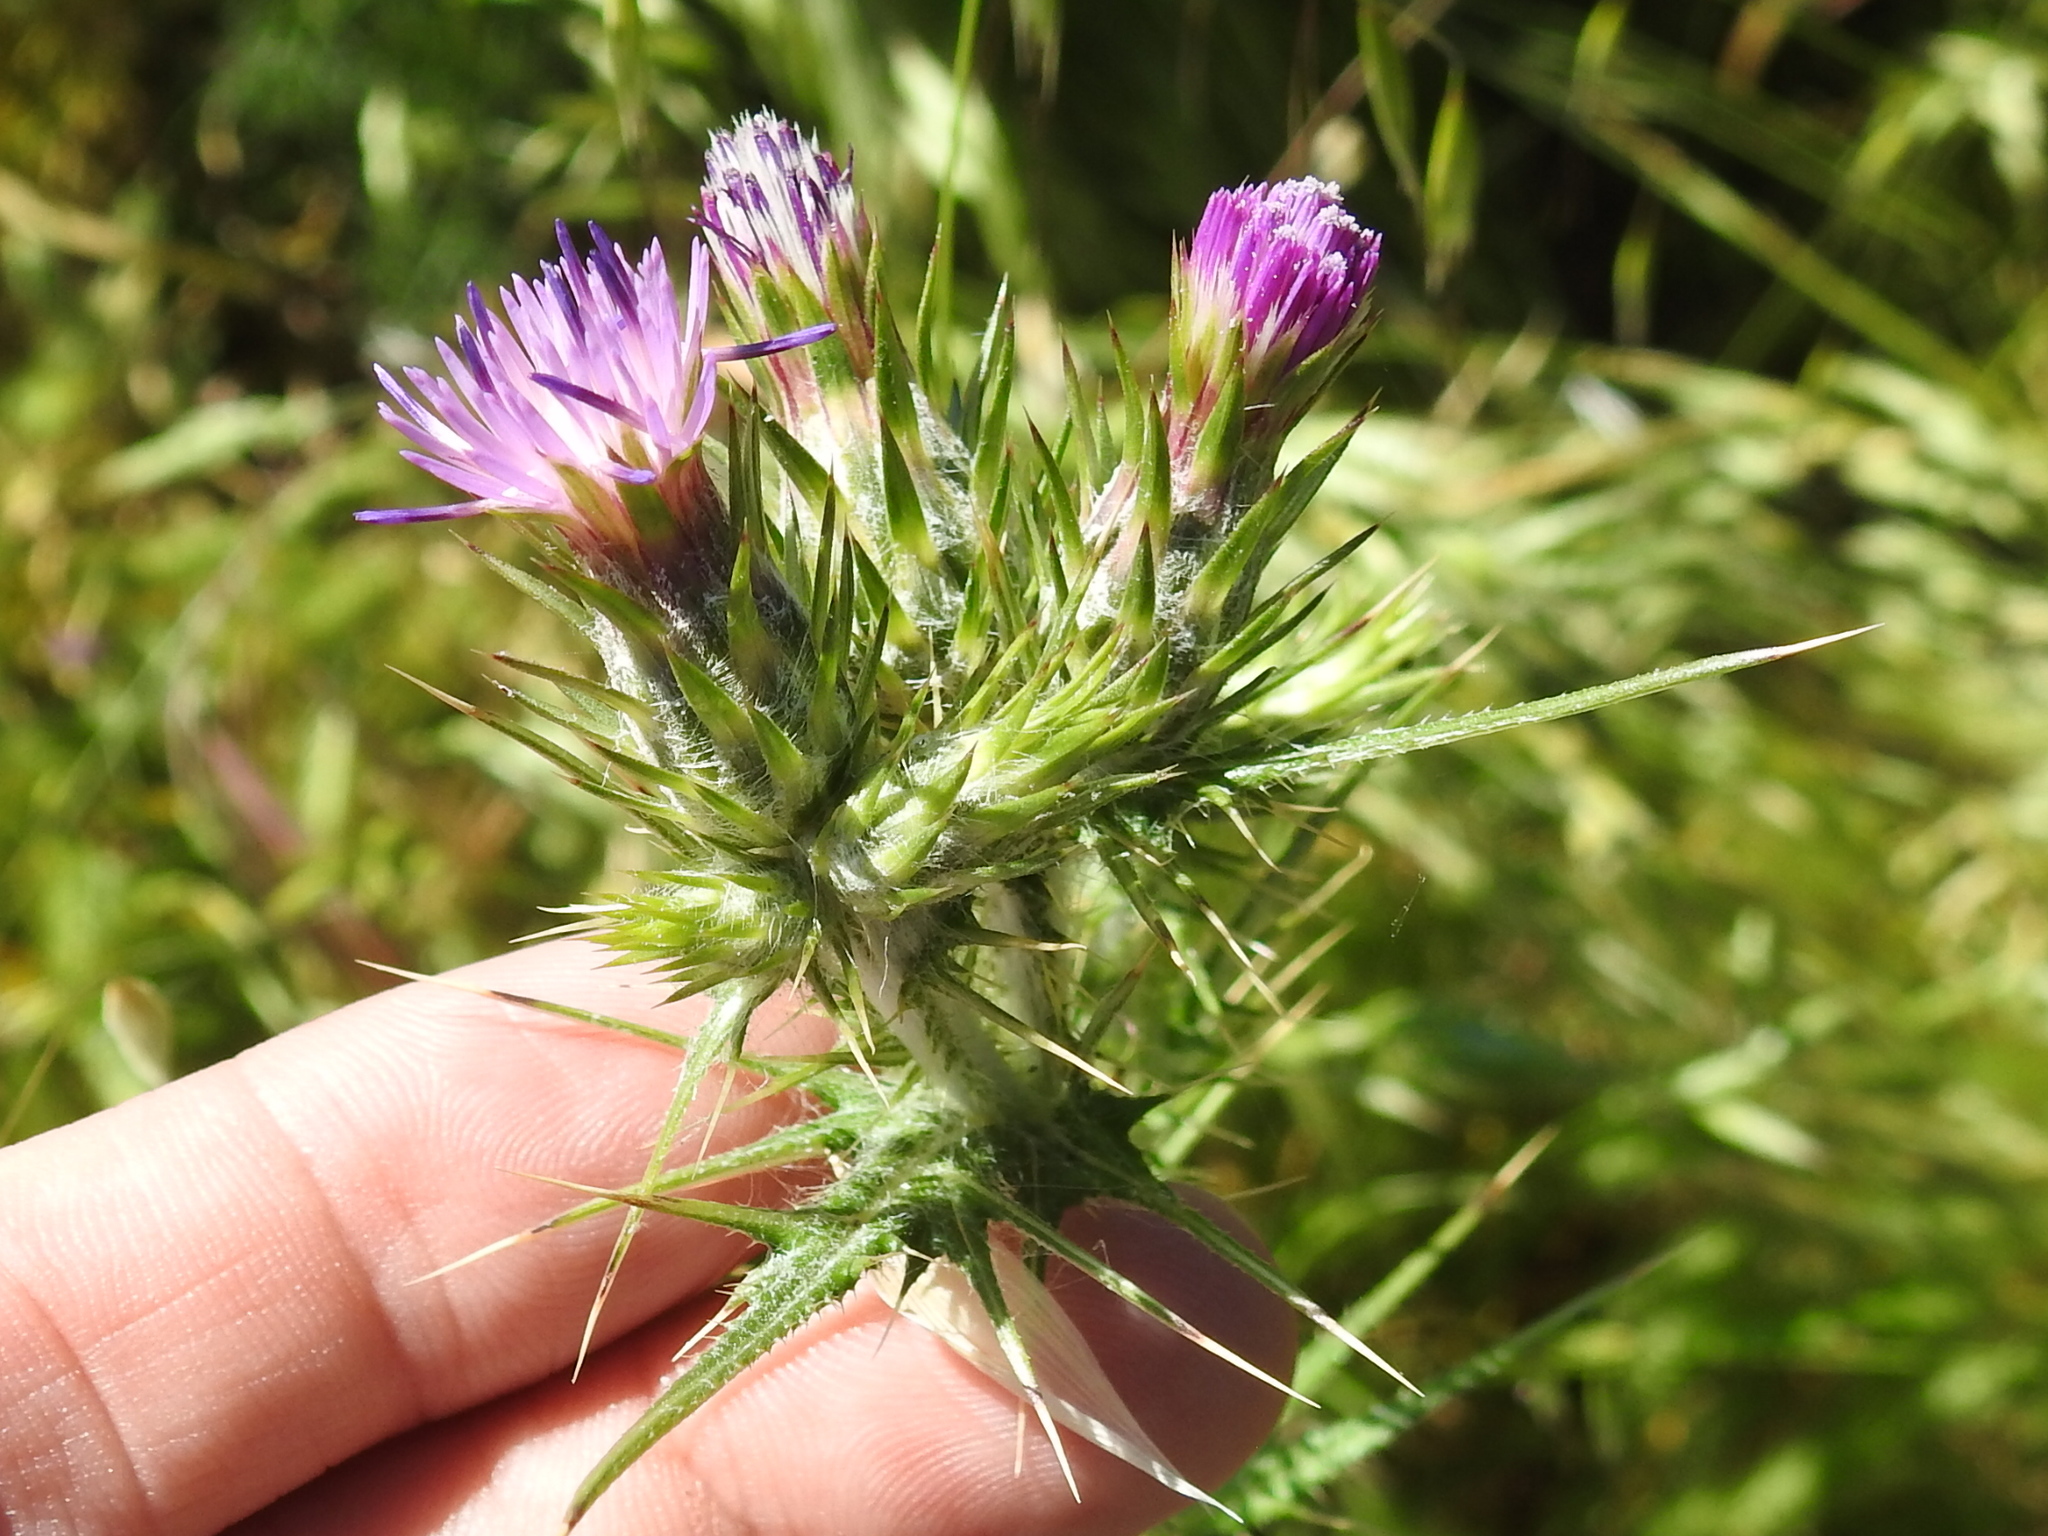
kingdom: Plantae
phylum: Tracheophyta
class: Magnoliopsida
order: Asterales
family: Asteraceae
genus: Carduus
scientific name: Carduus pycnocephalus
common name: Plymouth thistle
